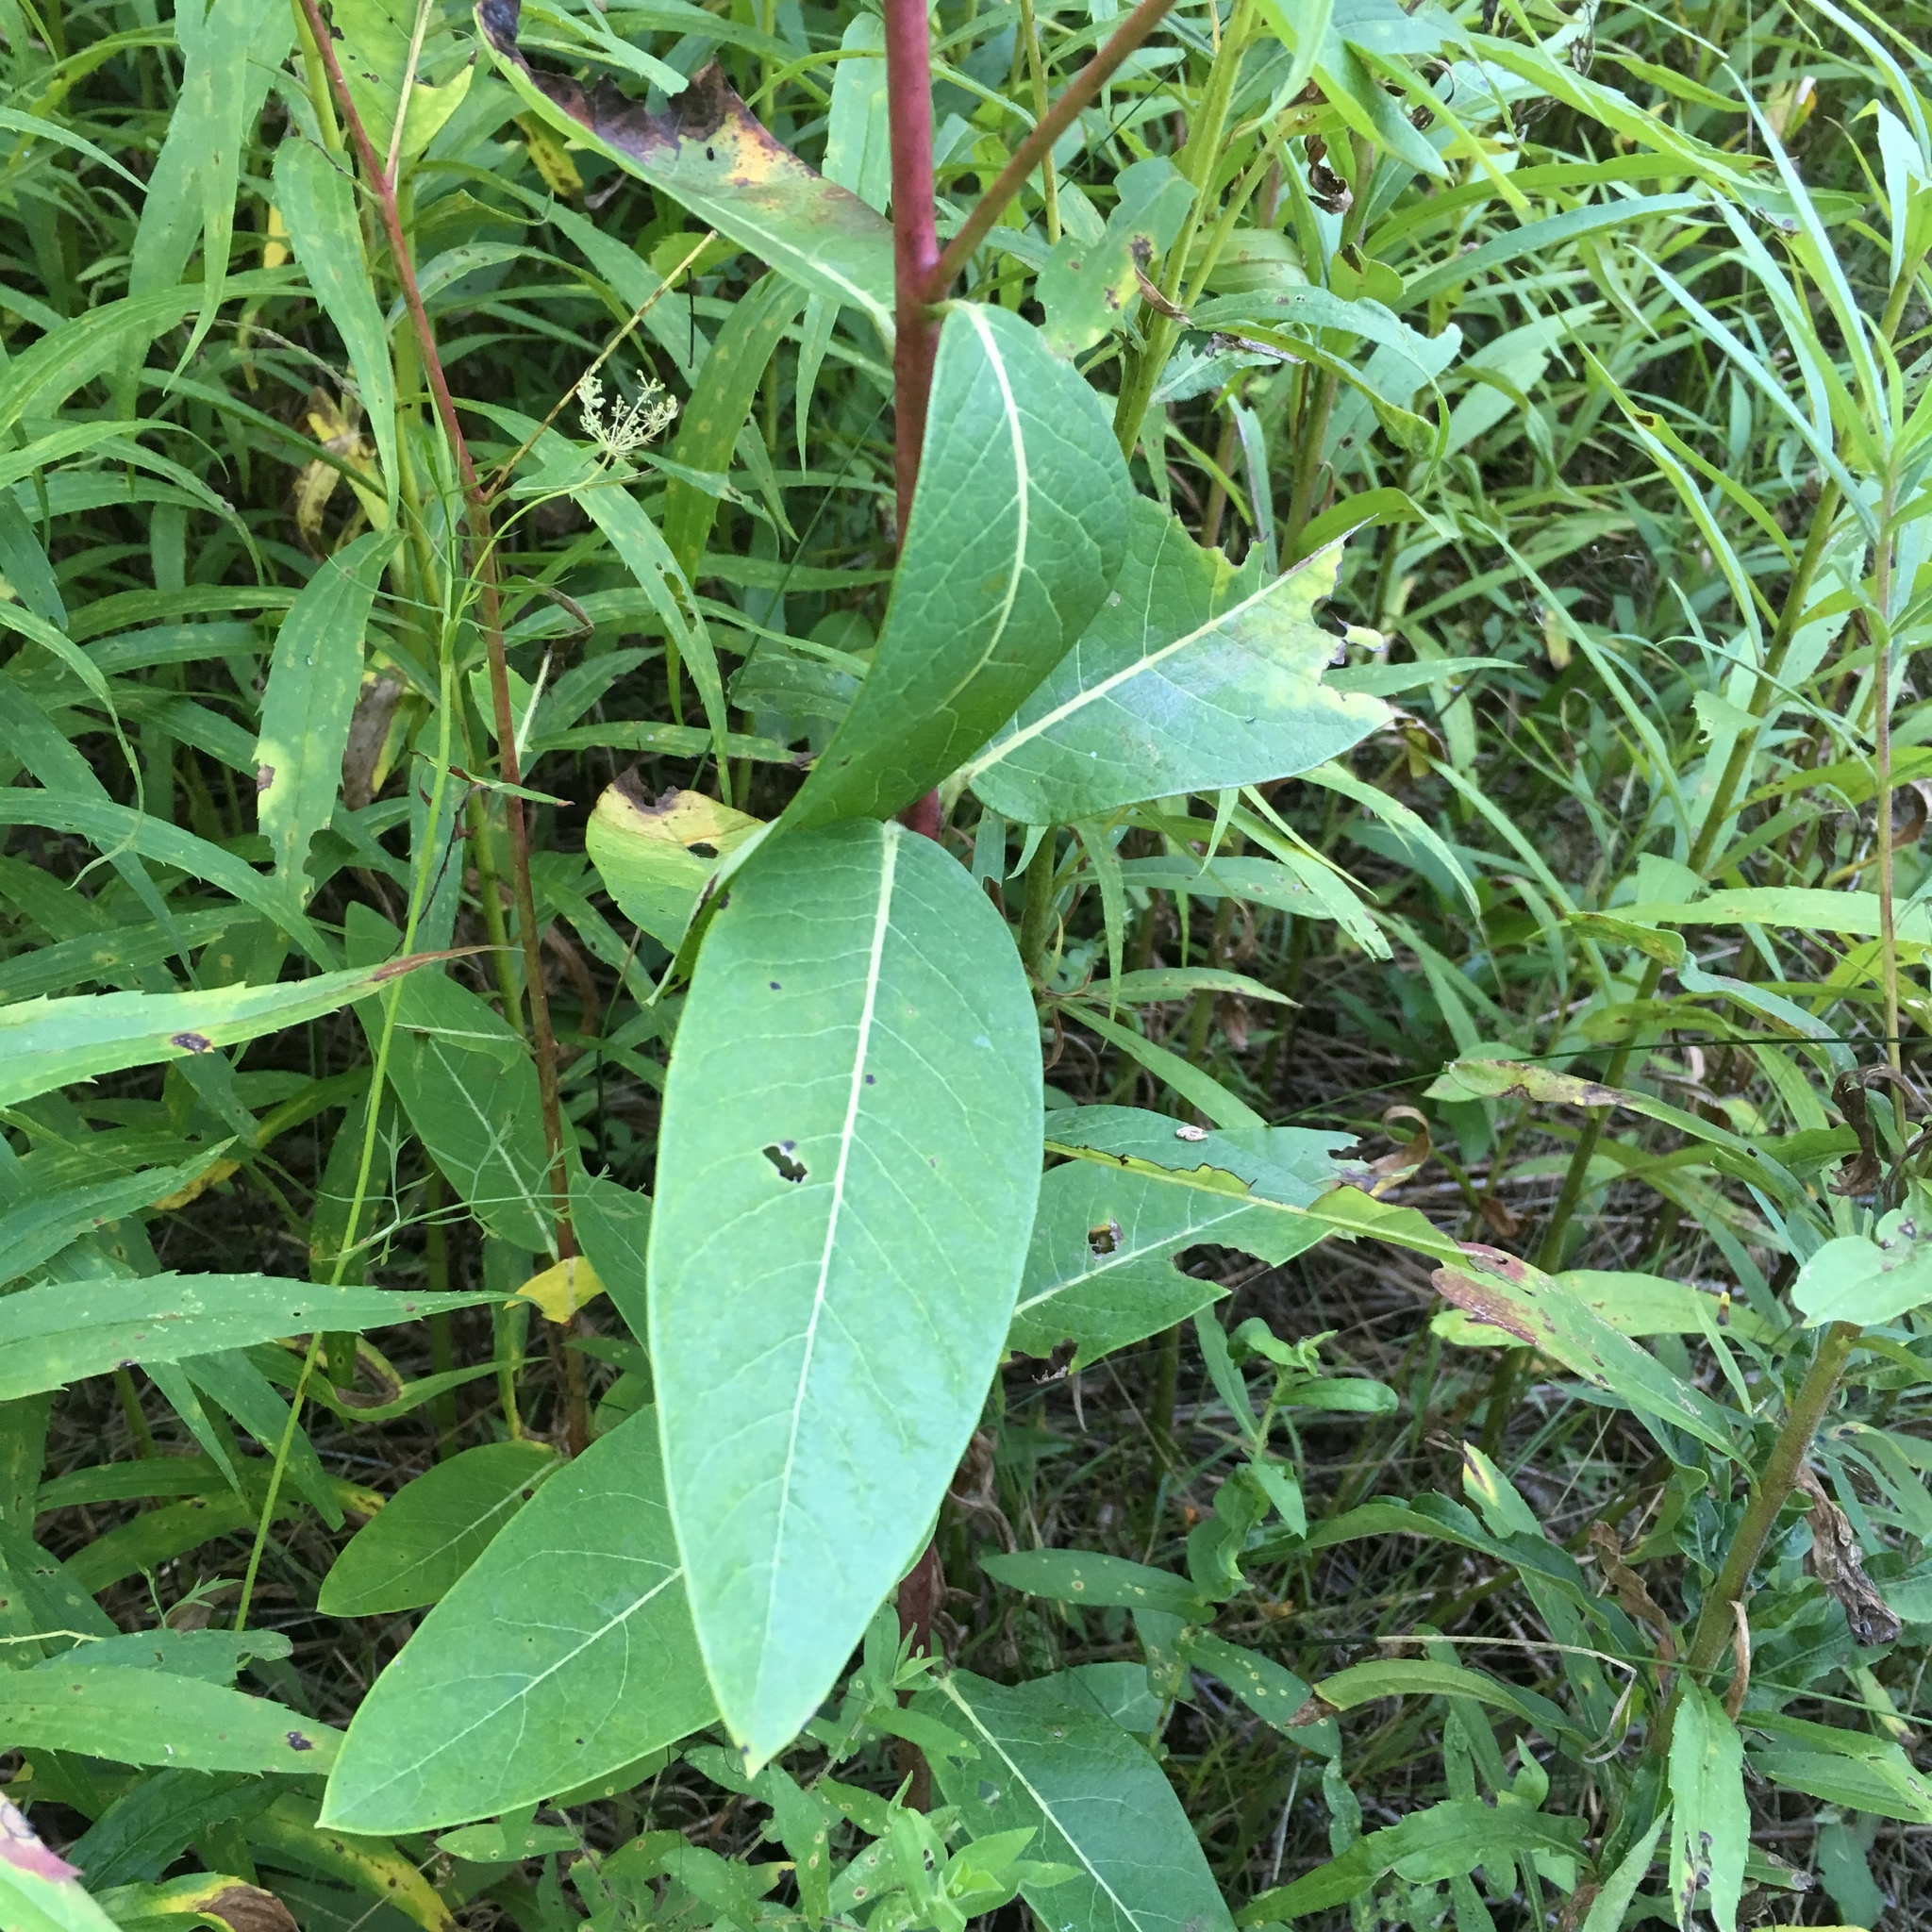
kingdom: Plantae
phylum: Tracheophyta
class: Magnoliopsida
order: Gentianales
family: Apocynaceae
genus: Apocynum
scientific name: Apocynum cannabinum
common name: Hemp dogbane
